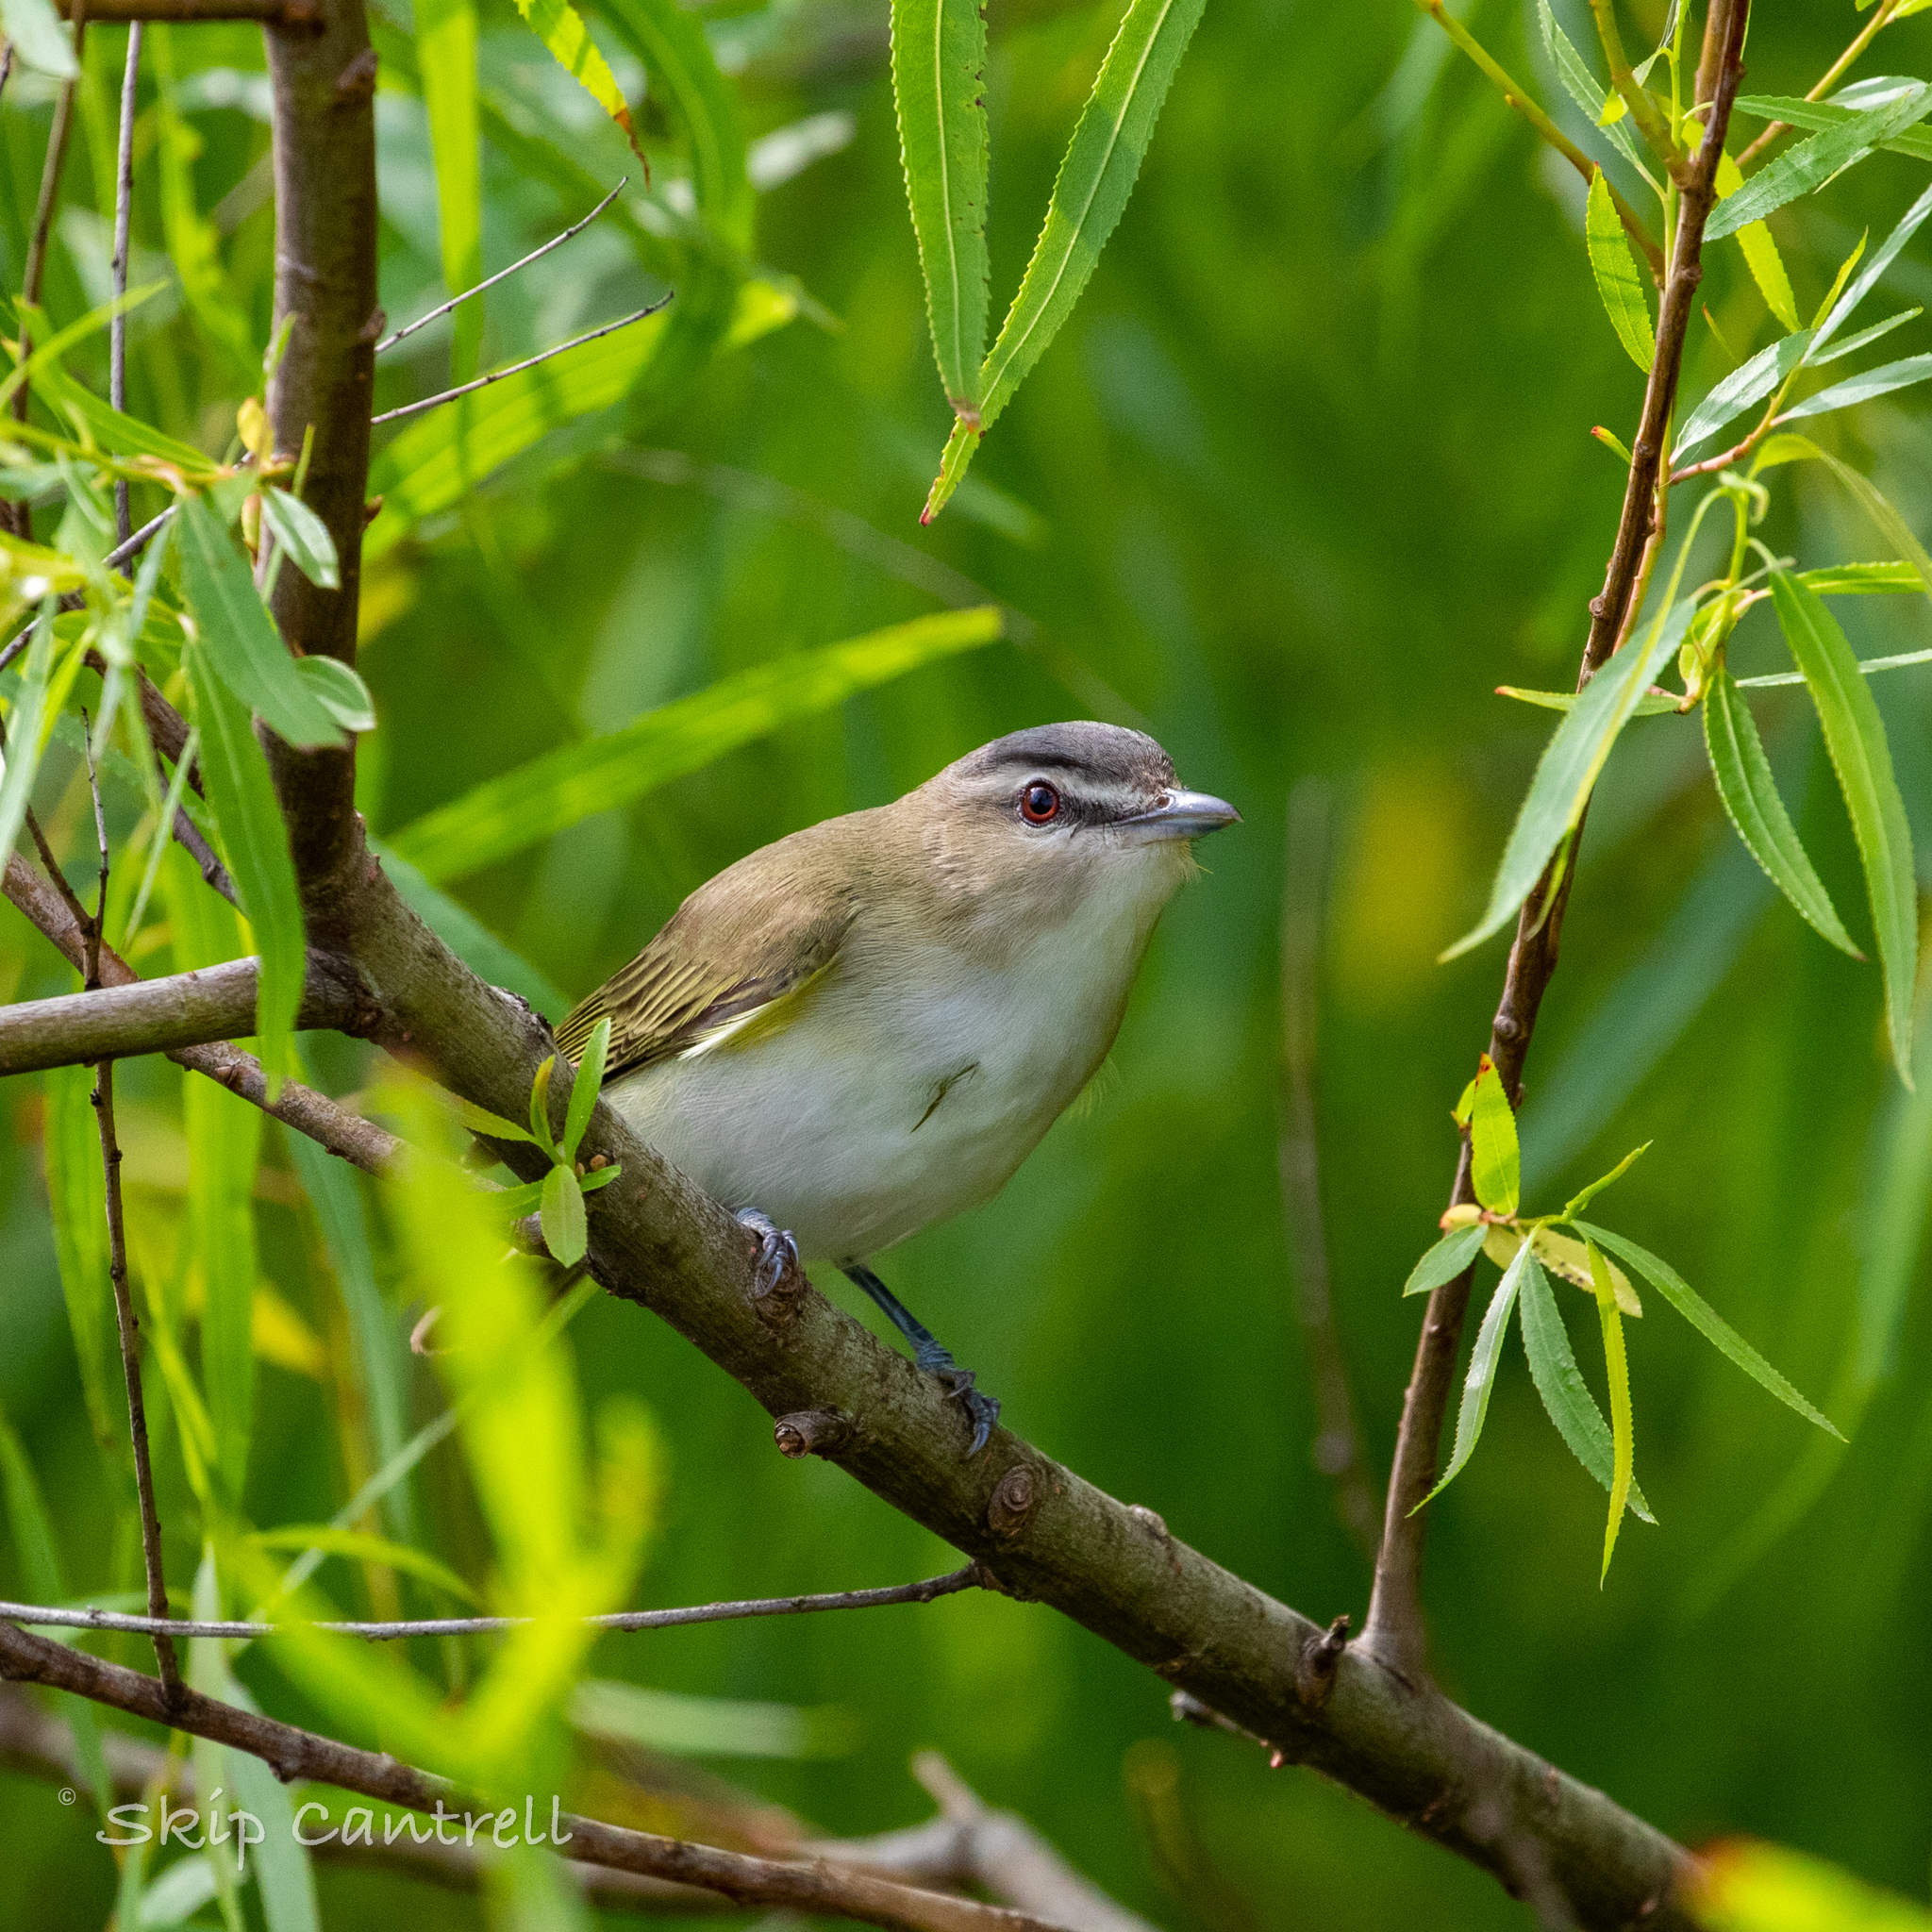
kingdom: Animalia
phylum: Chordata
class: Aves
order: Passeriformes
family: Vireonidae
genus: Vireo
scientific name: Vireo olivaceus
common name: Red-eyed vireo
